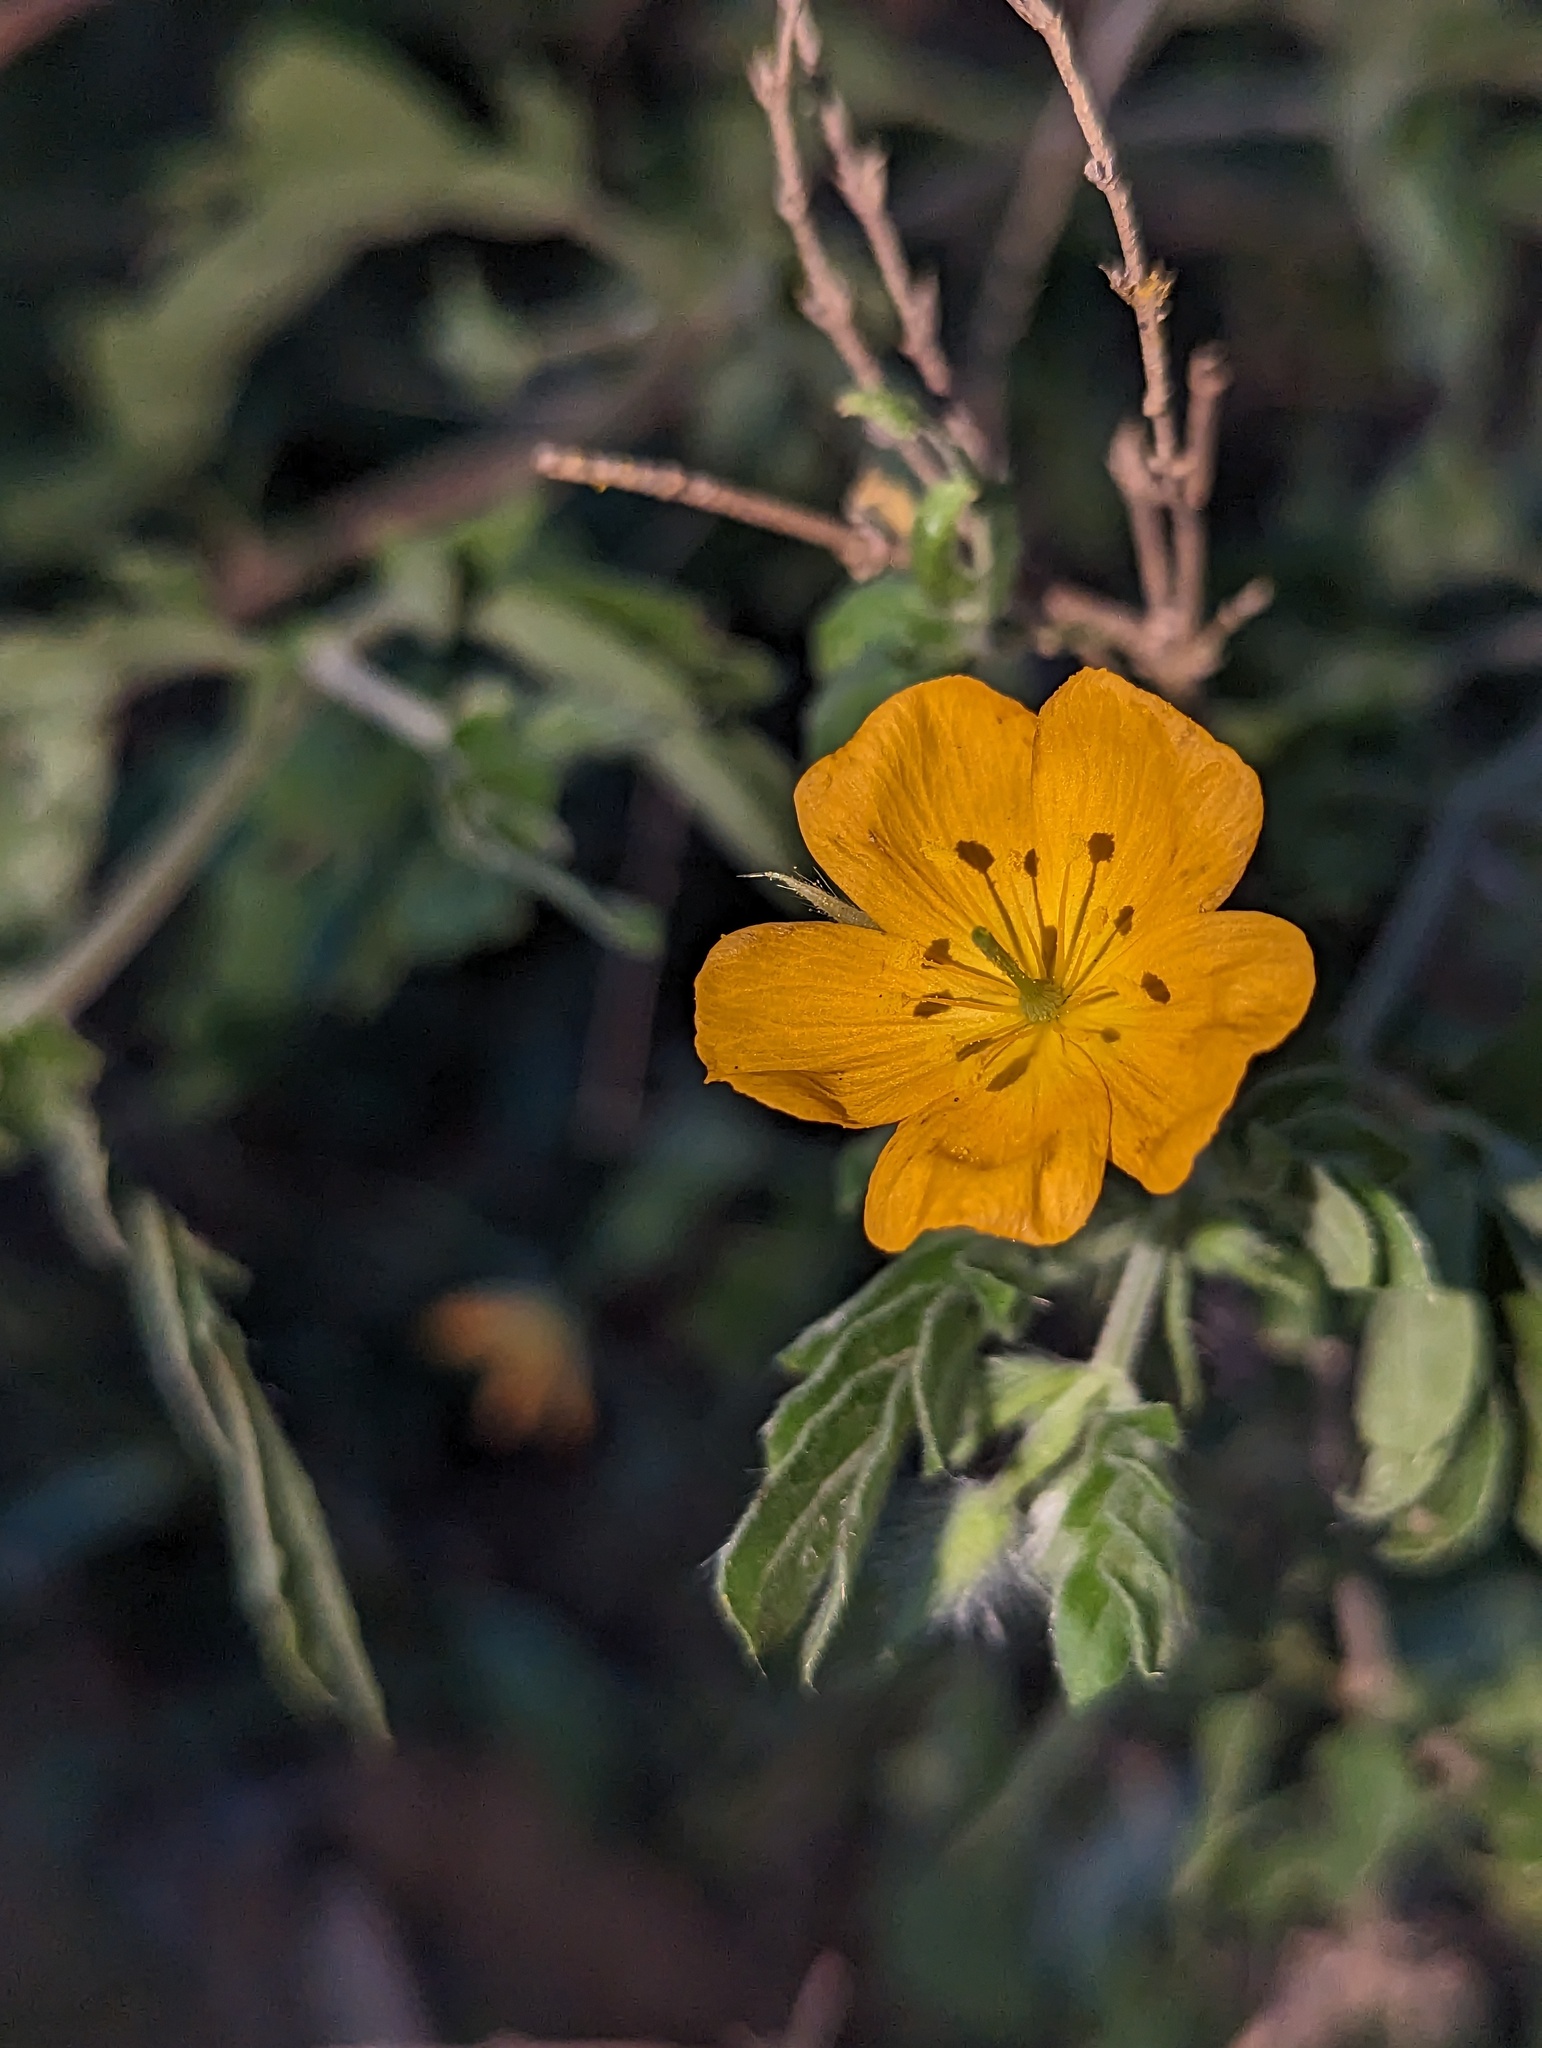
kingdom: Plantae
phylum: Tracheophyta
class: Magnoliopsida
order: Zygophyllales
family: Zygophyllaceae
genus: Kallstroemia
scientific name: Kallstroemia peninsularis
